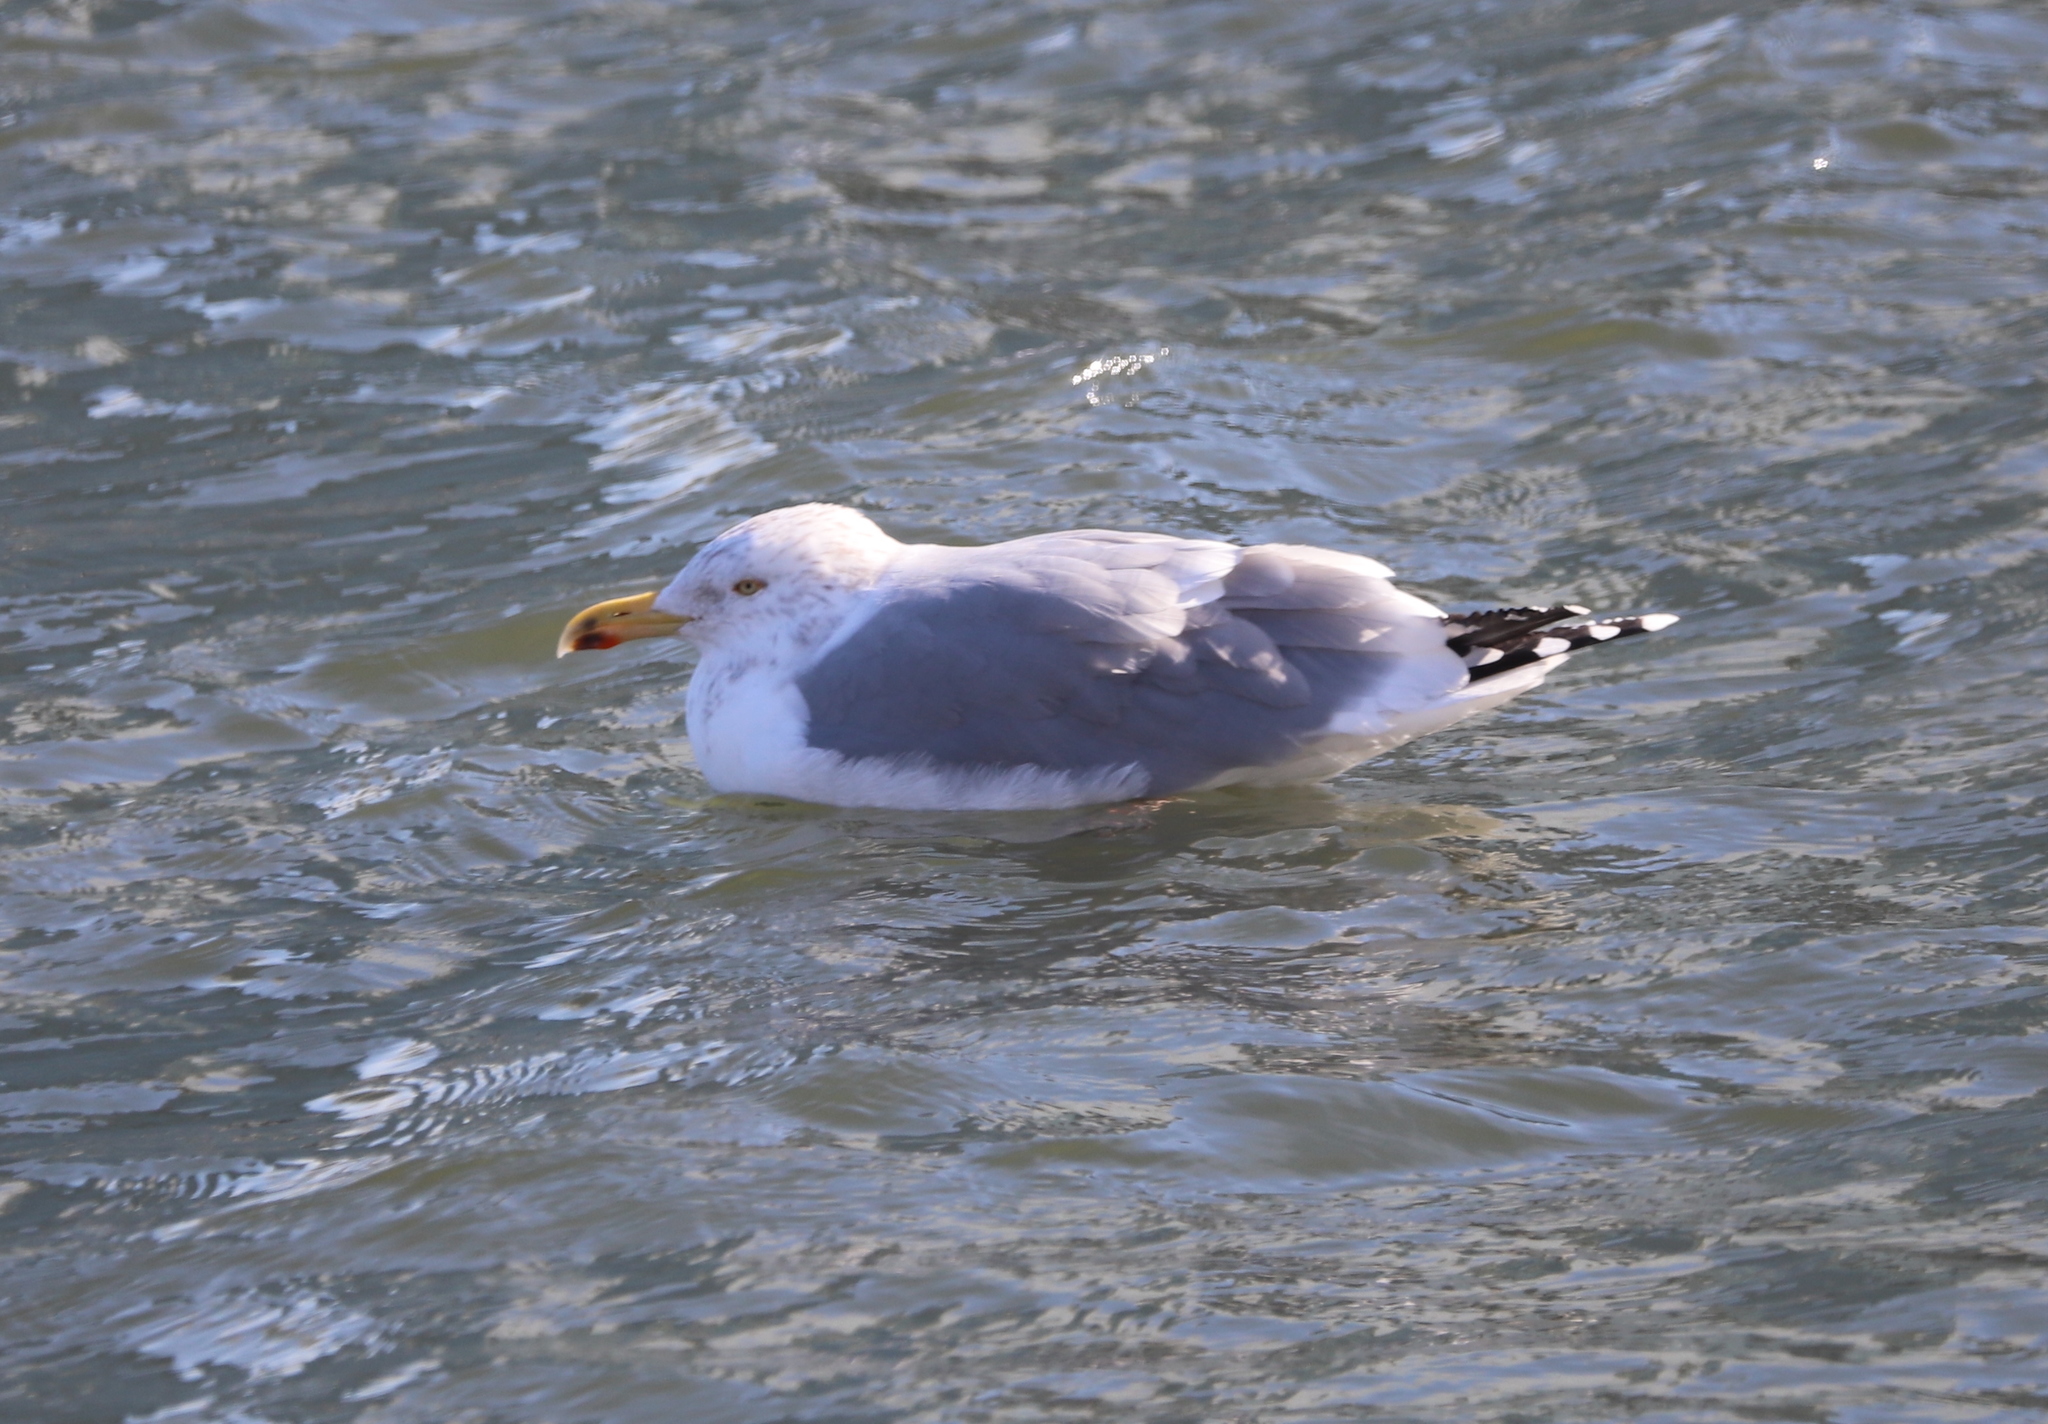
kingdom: Animalia
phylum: Chordata
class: Aves
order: Charadriiformes
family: Laridae
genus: Larus
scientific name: Larus argentatus
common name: Herring gull
